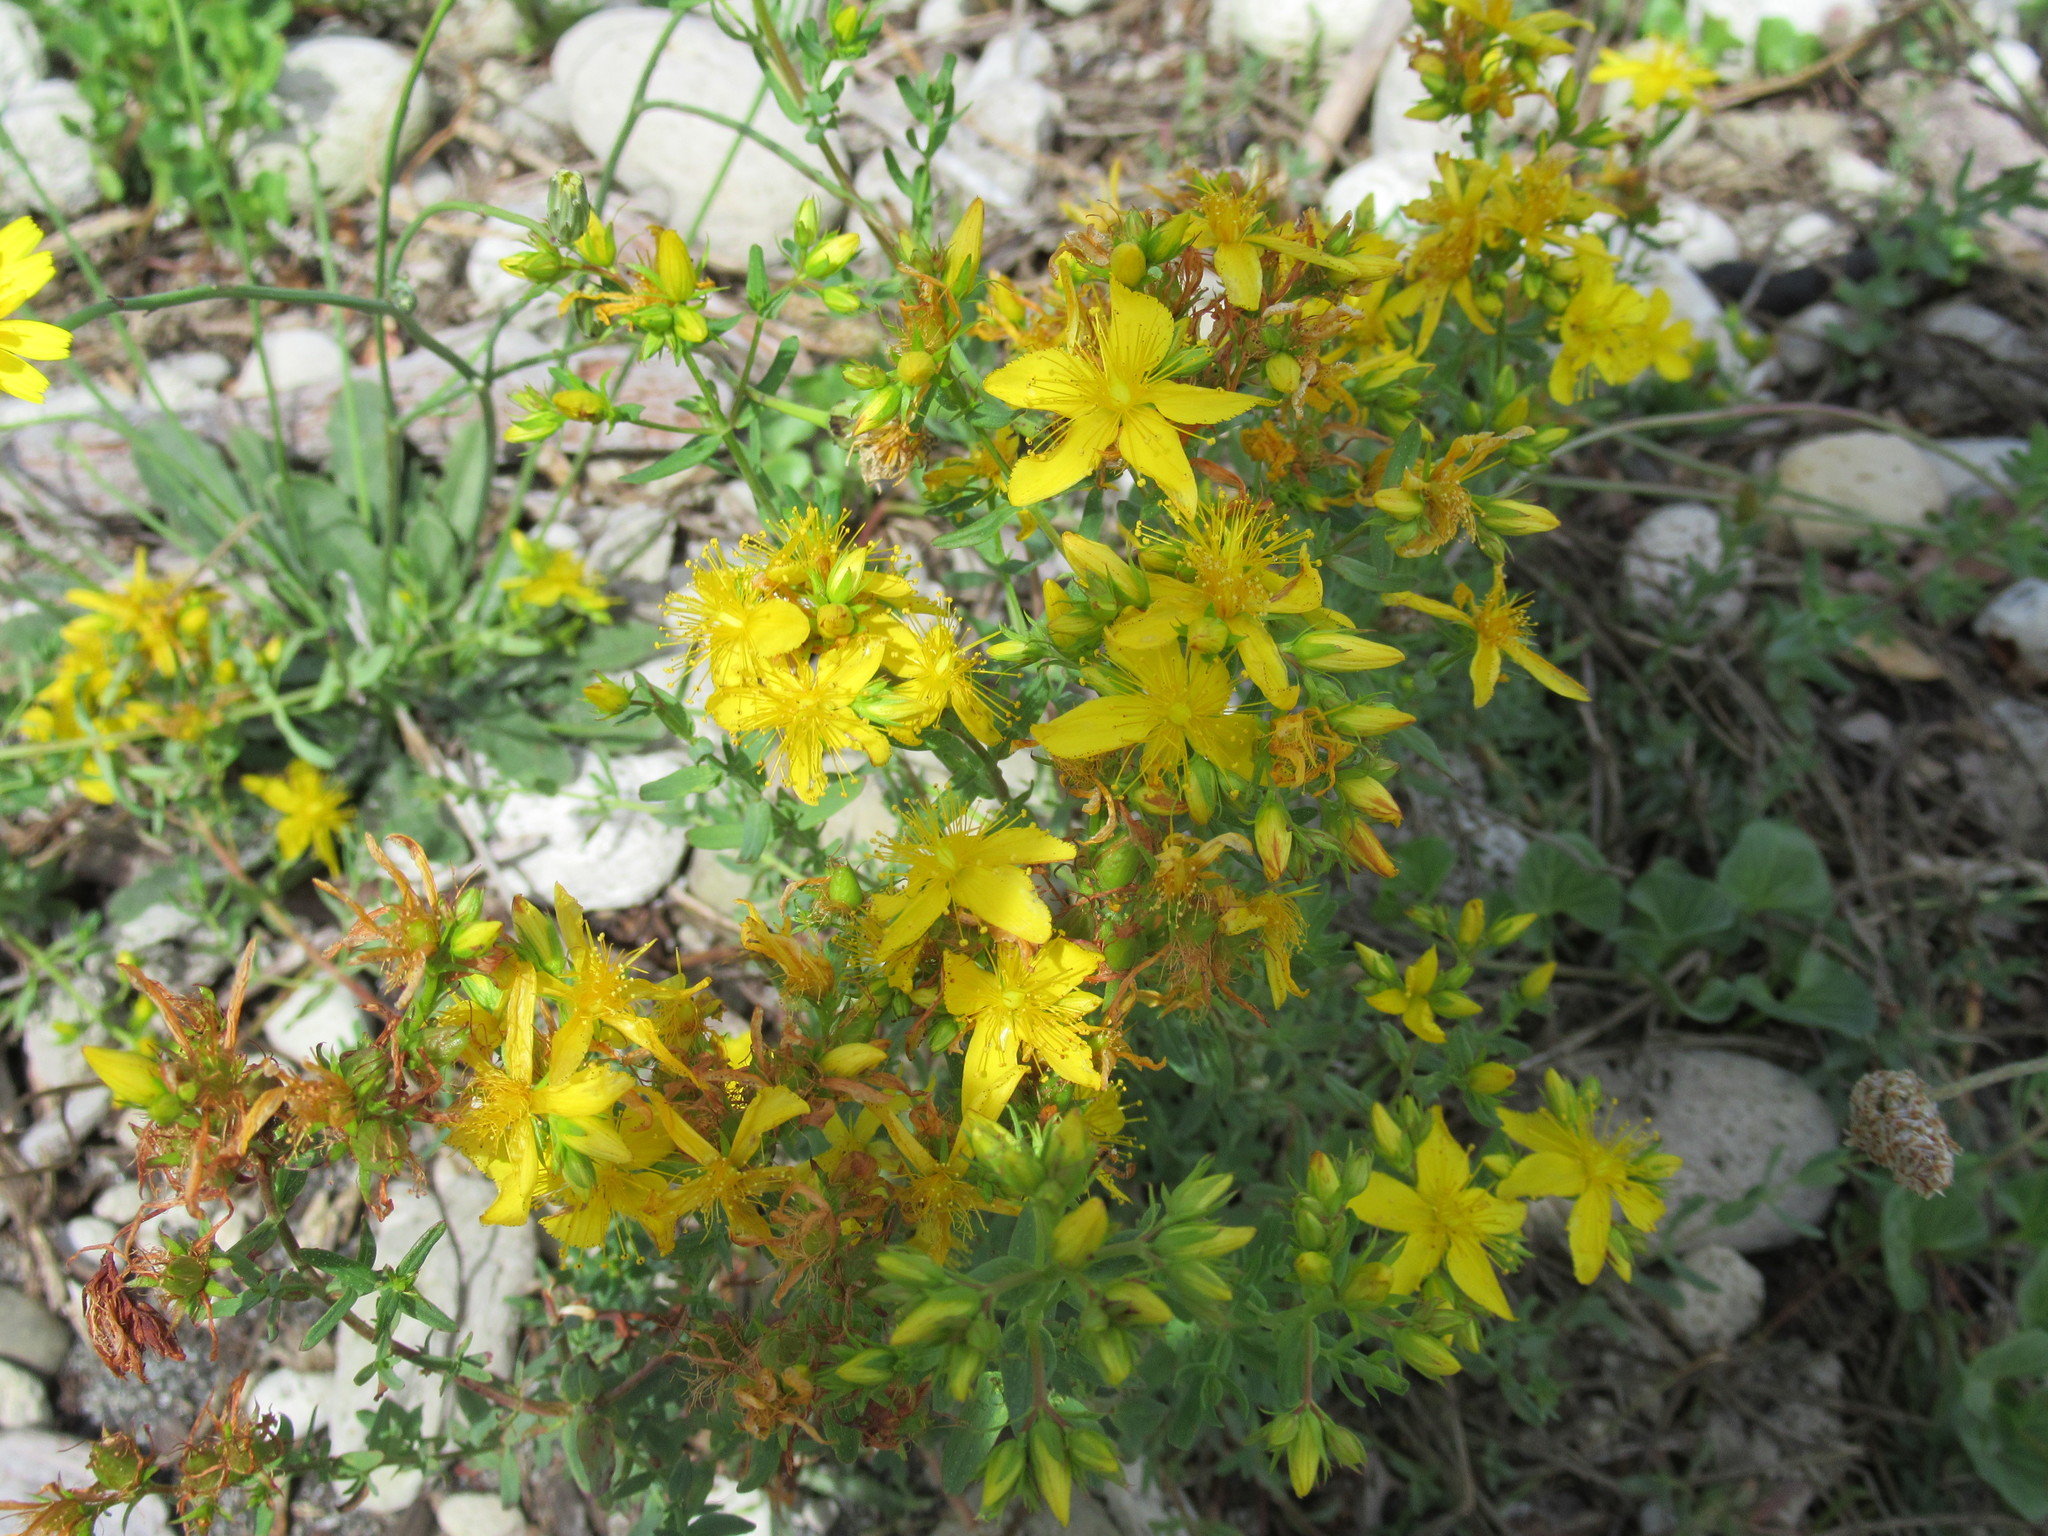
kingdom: Plantae
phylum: Tracheophyta
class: Magnoliopsida
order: Malpighiales
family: Hypericaceae
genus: Hypericum
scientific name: Hypericum perforatum
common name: Common st. johnswort
